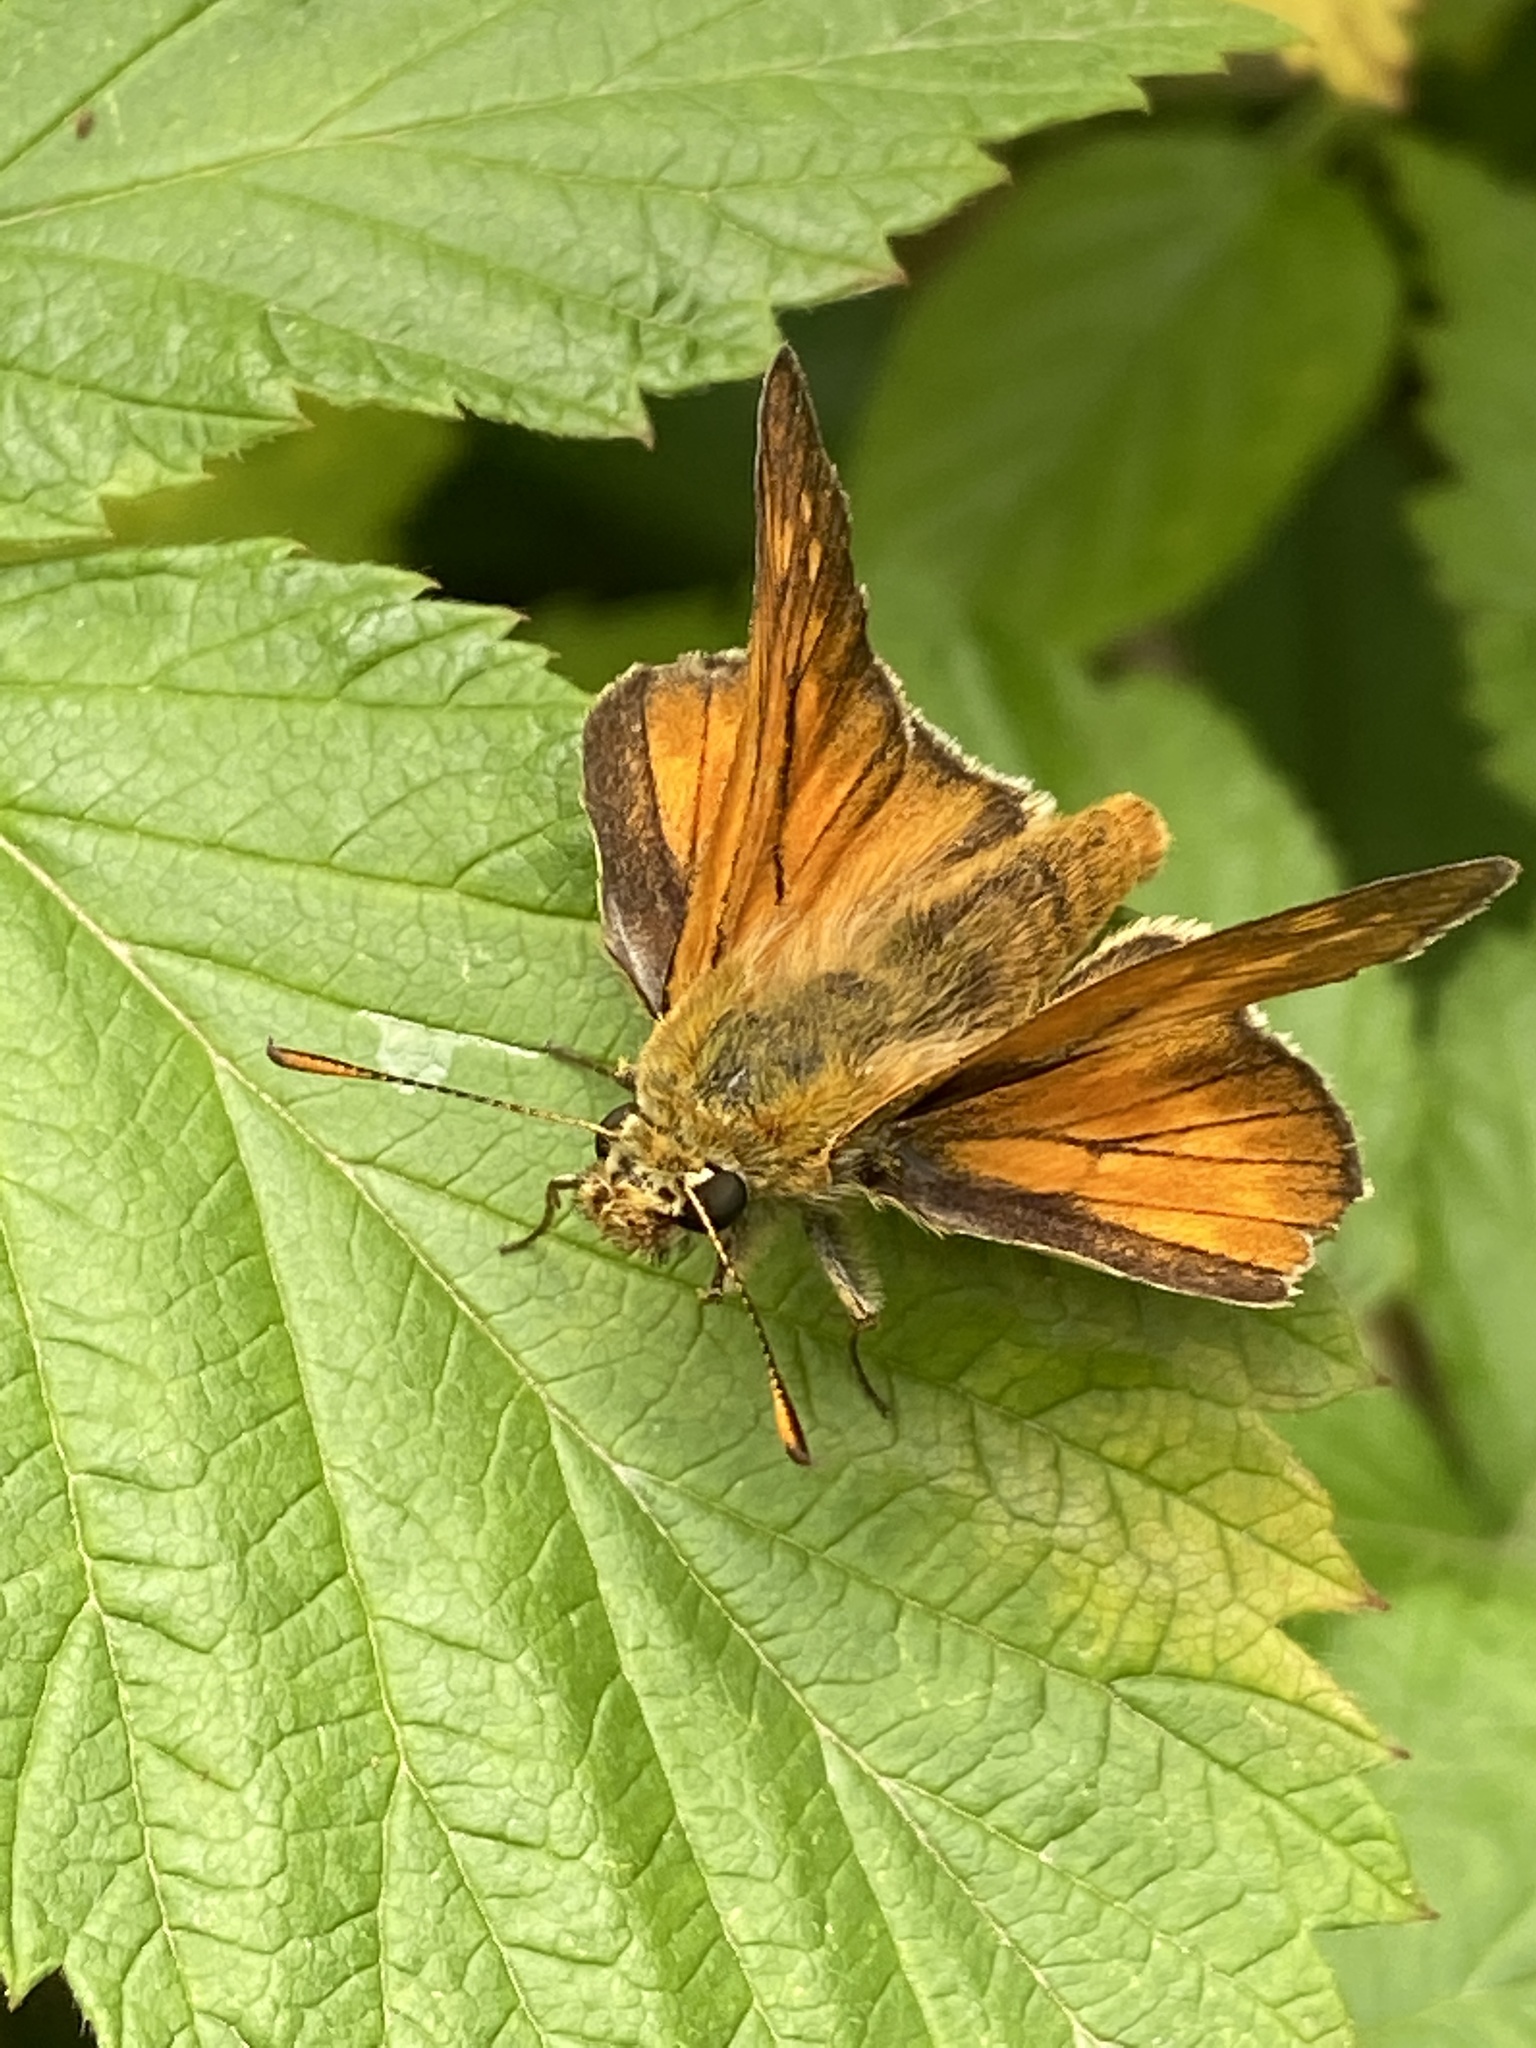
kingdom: Animalia
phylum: Arthropoda
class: Insecta
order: Lepidoptera
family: Hesperiidae
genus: Ochlodes
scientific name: Ochlodes venata
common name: Large skipper
